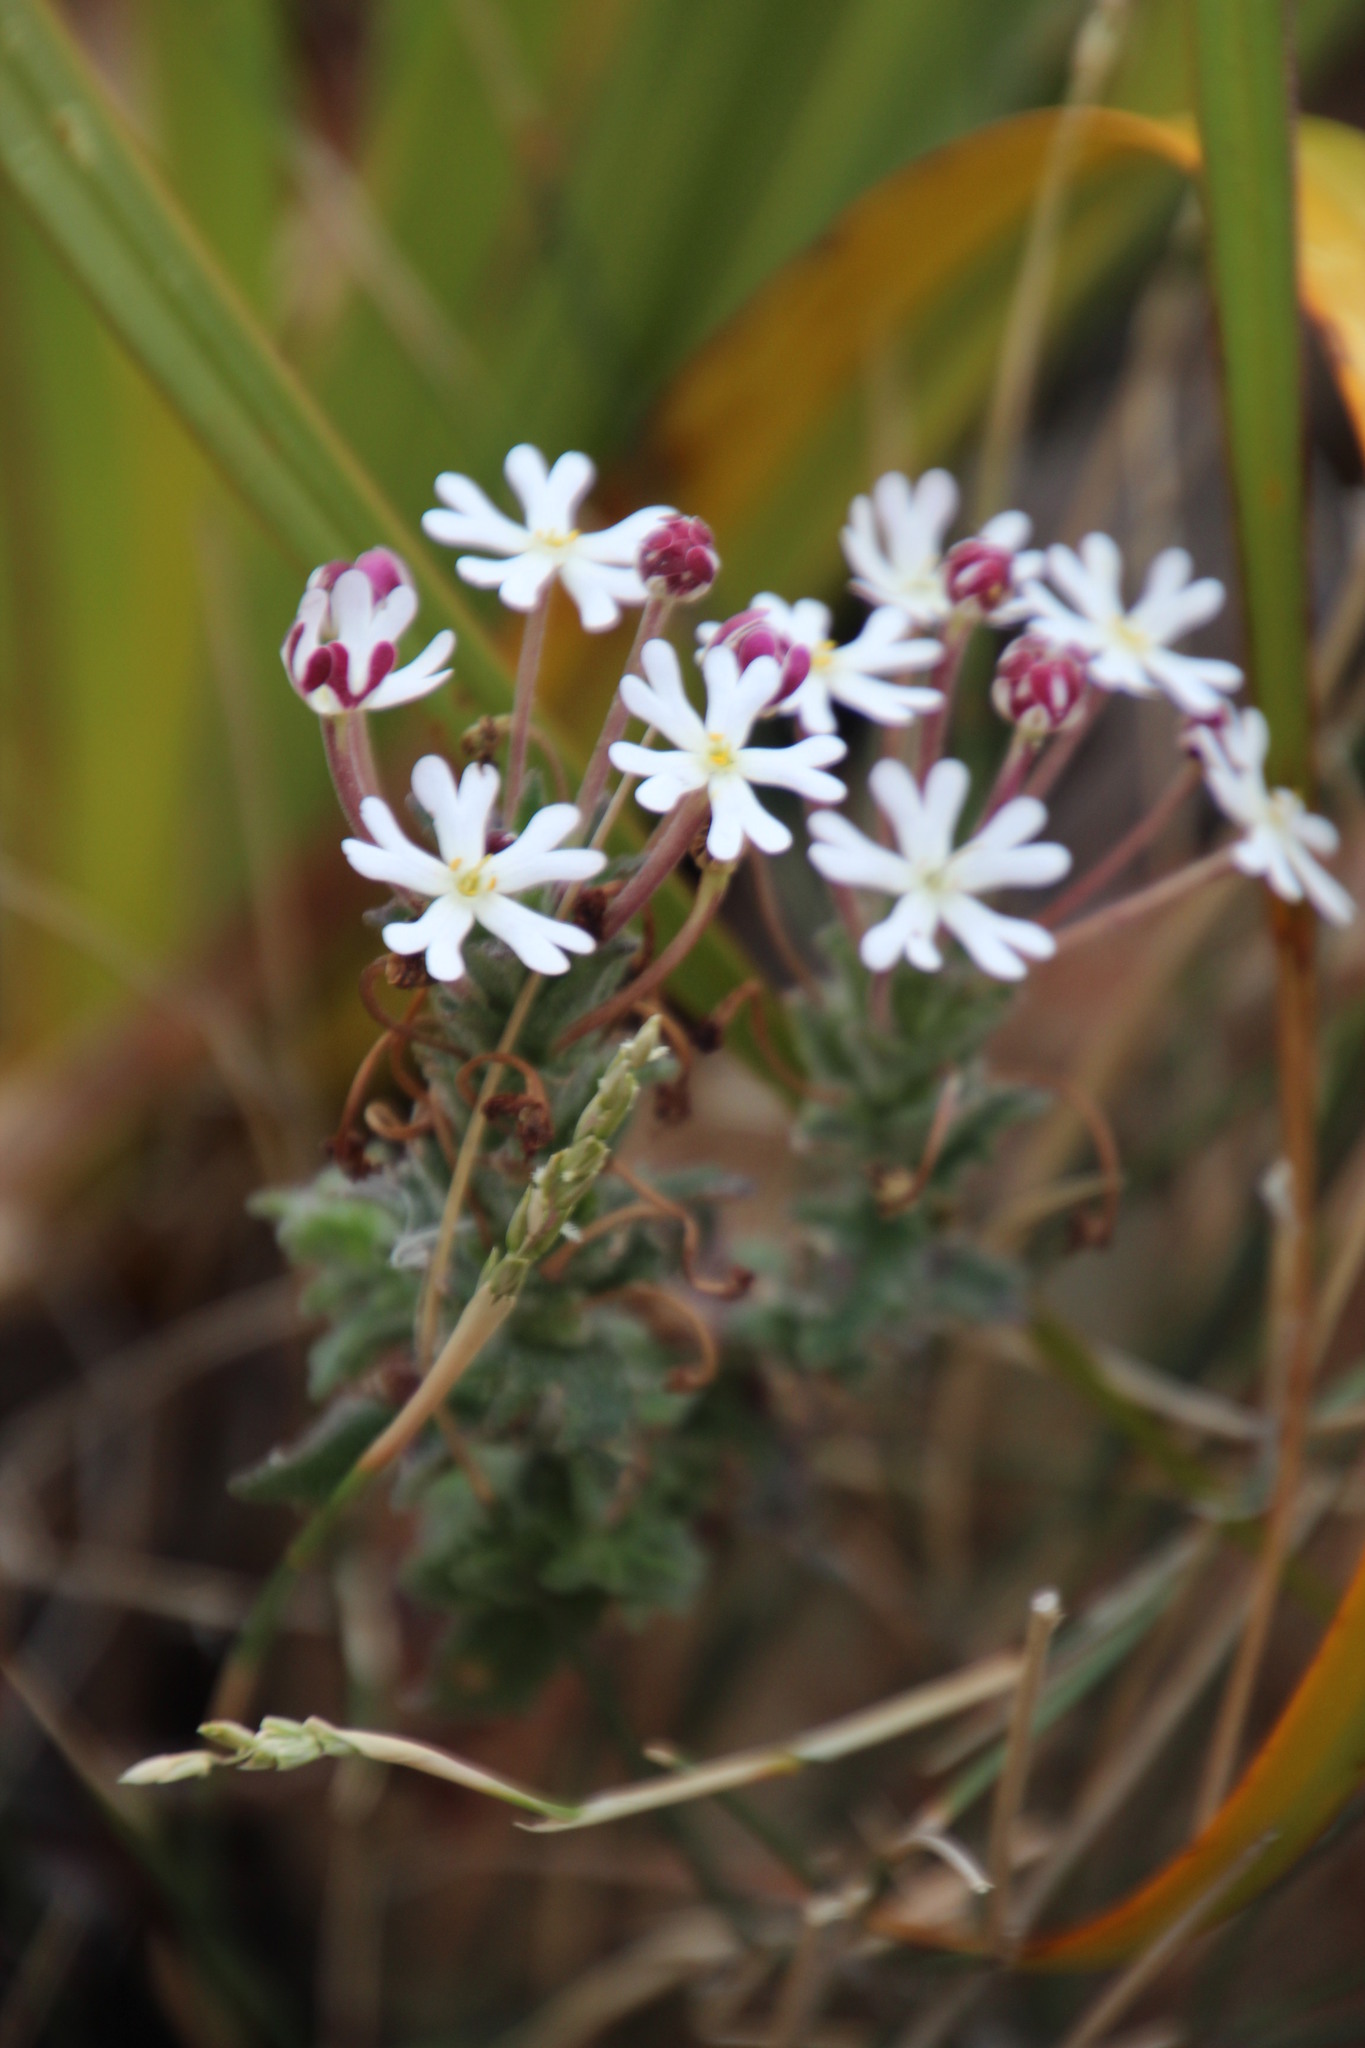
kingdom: Plantae
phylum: Tracheophyta
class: Magnoliopsida
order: Lamiales
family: Scrophulariaceae
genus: Zaluzianskya
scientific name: Zaluzianskya capensis
